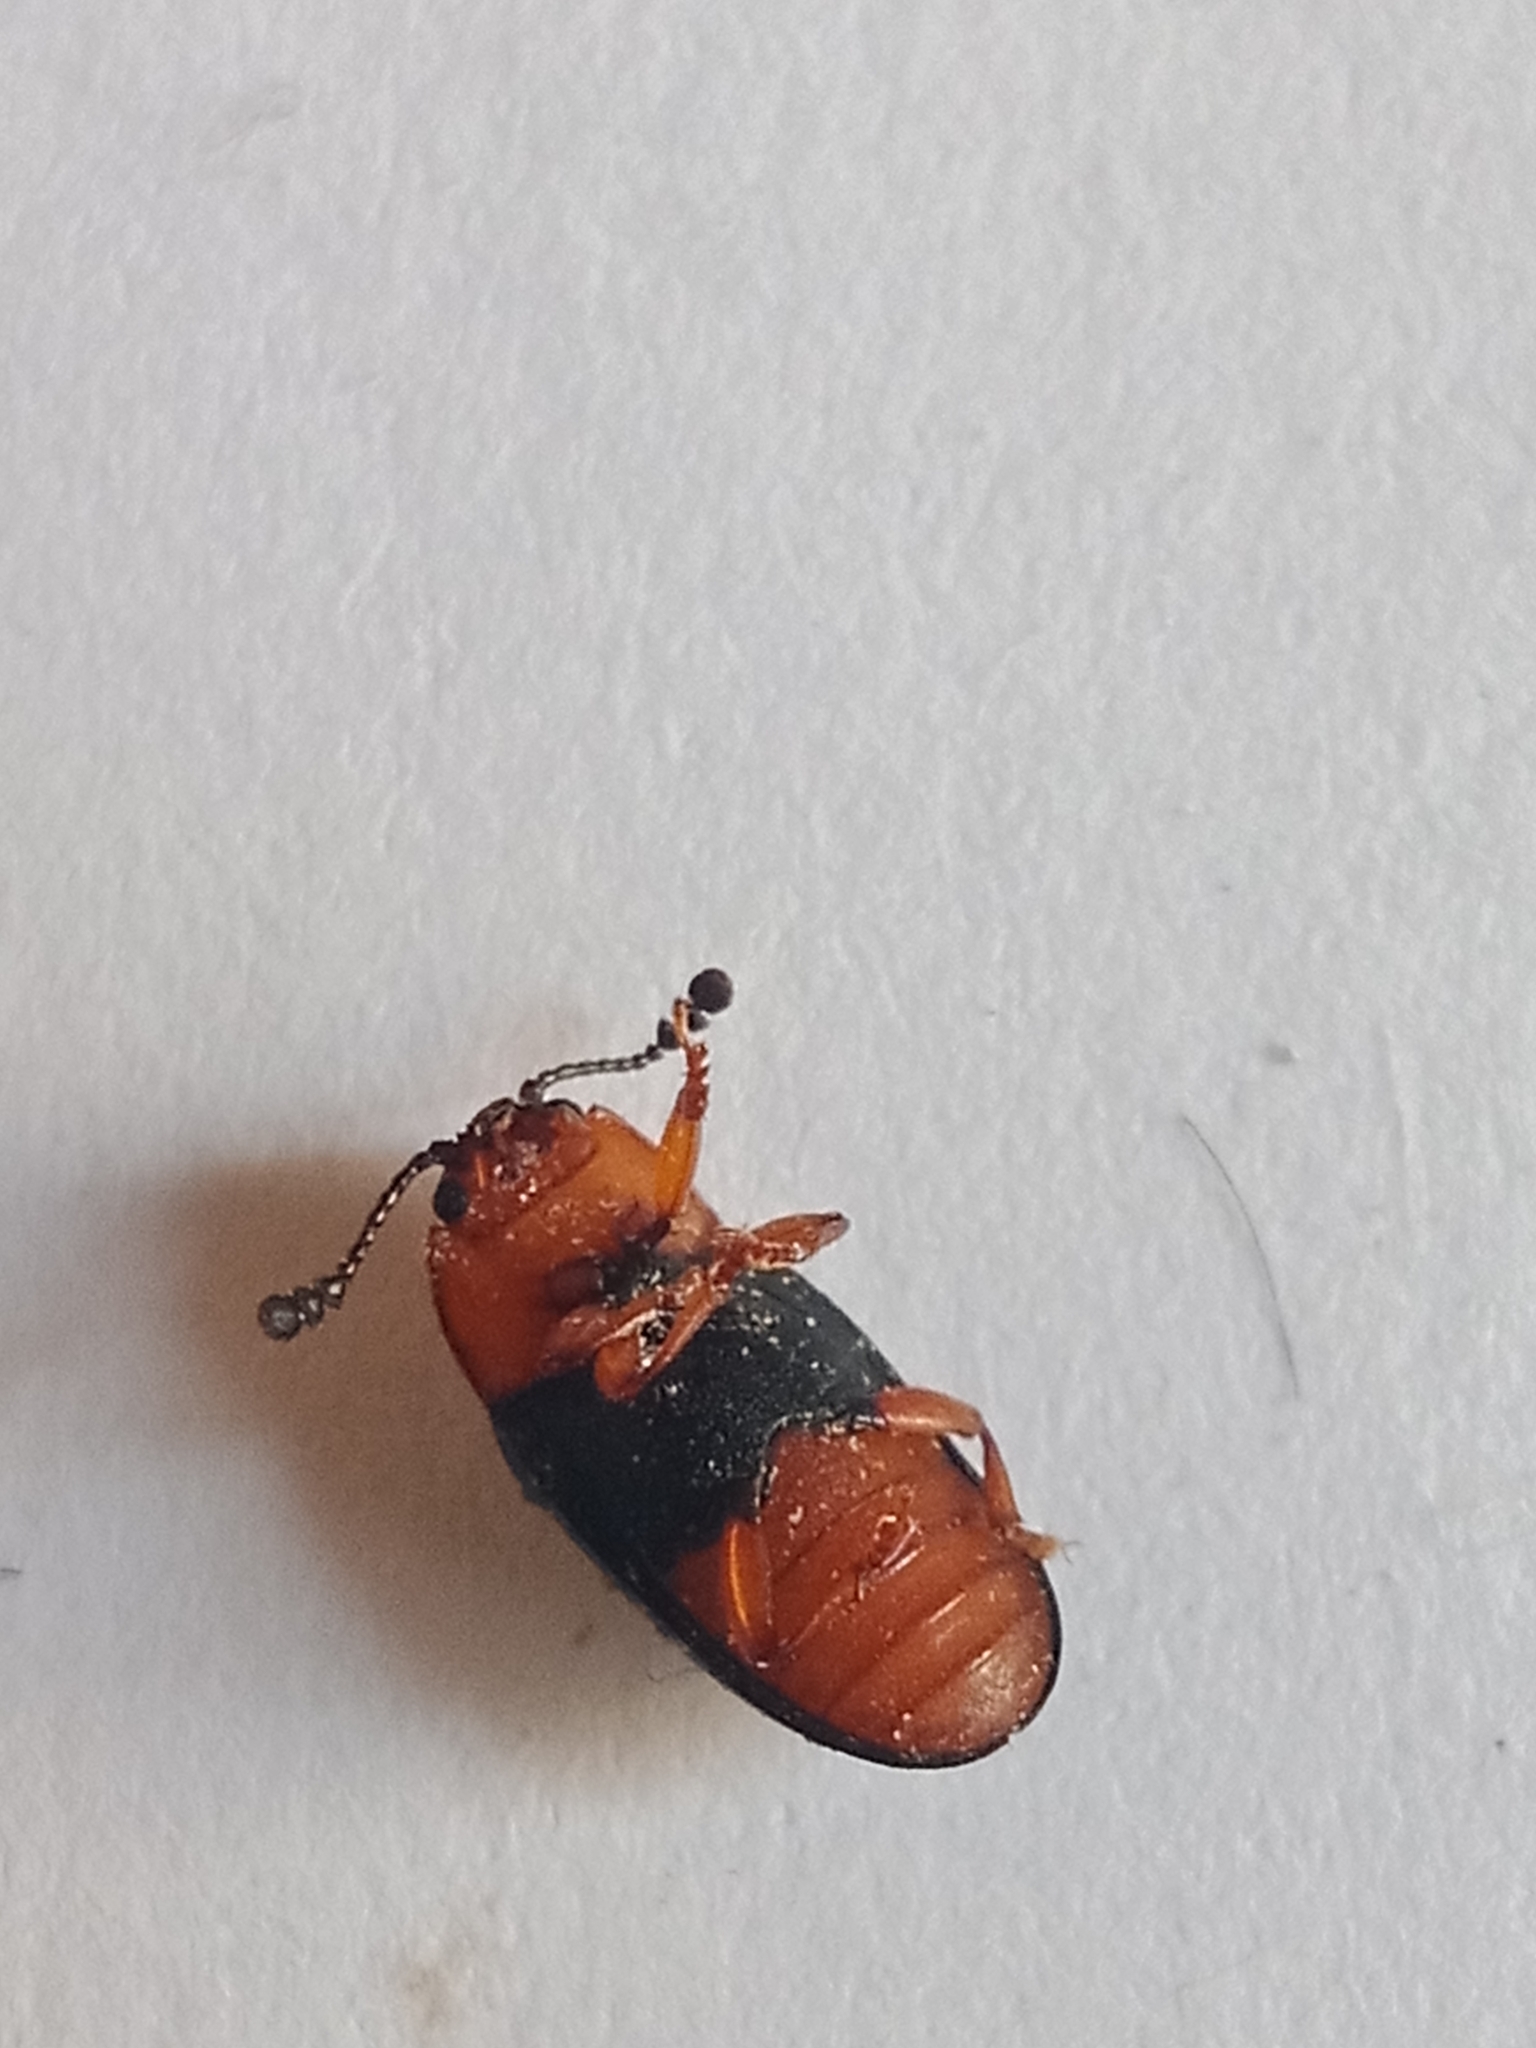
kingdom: Animalia
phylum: Arthropoda
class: Insecta
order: Coleoptera
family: Erotylidae
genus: Triplax
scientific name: Triplax russica
